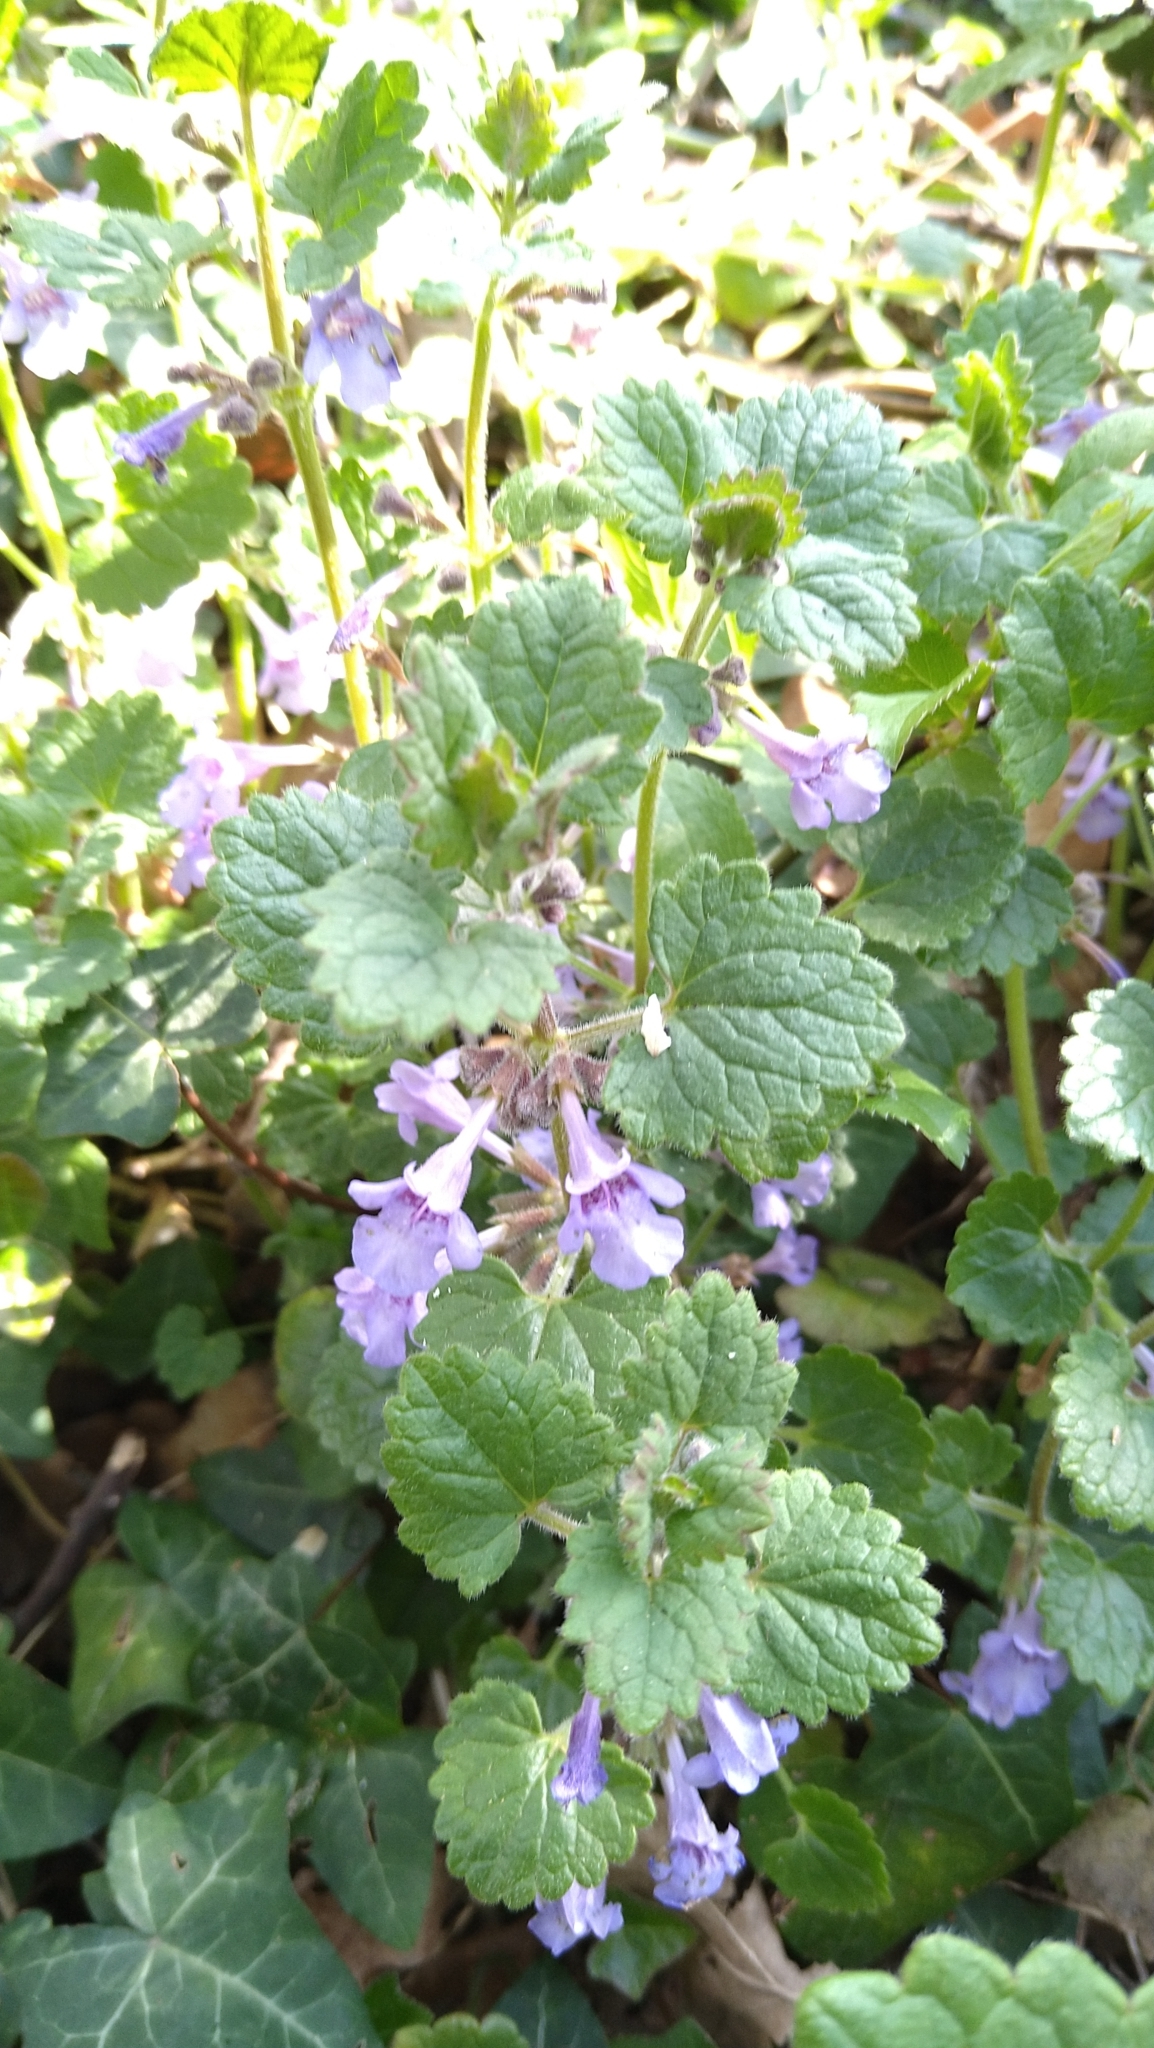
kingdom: Plantae
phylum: Tracheophyta
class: Magnoliopsida
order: Lamiales
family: Lamiaceae
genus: Glechoma
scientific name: Glechoma hederacea
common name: Ground ivy
